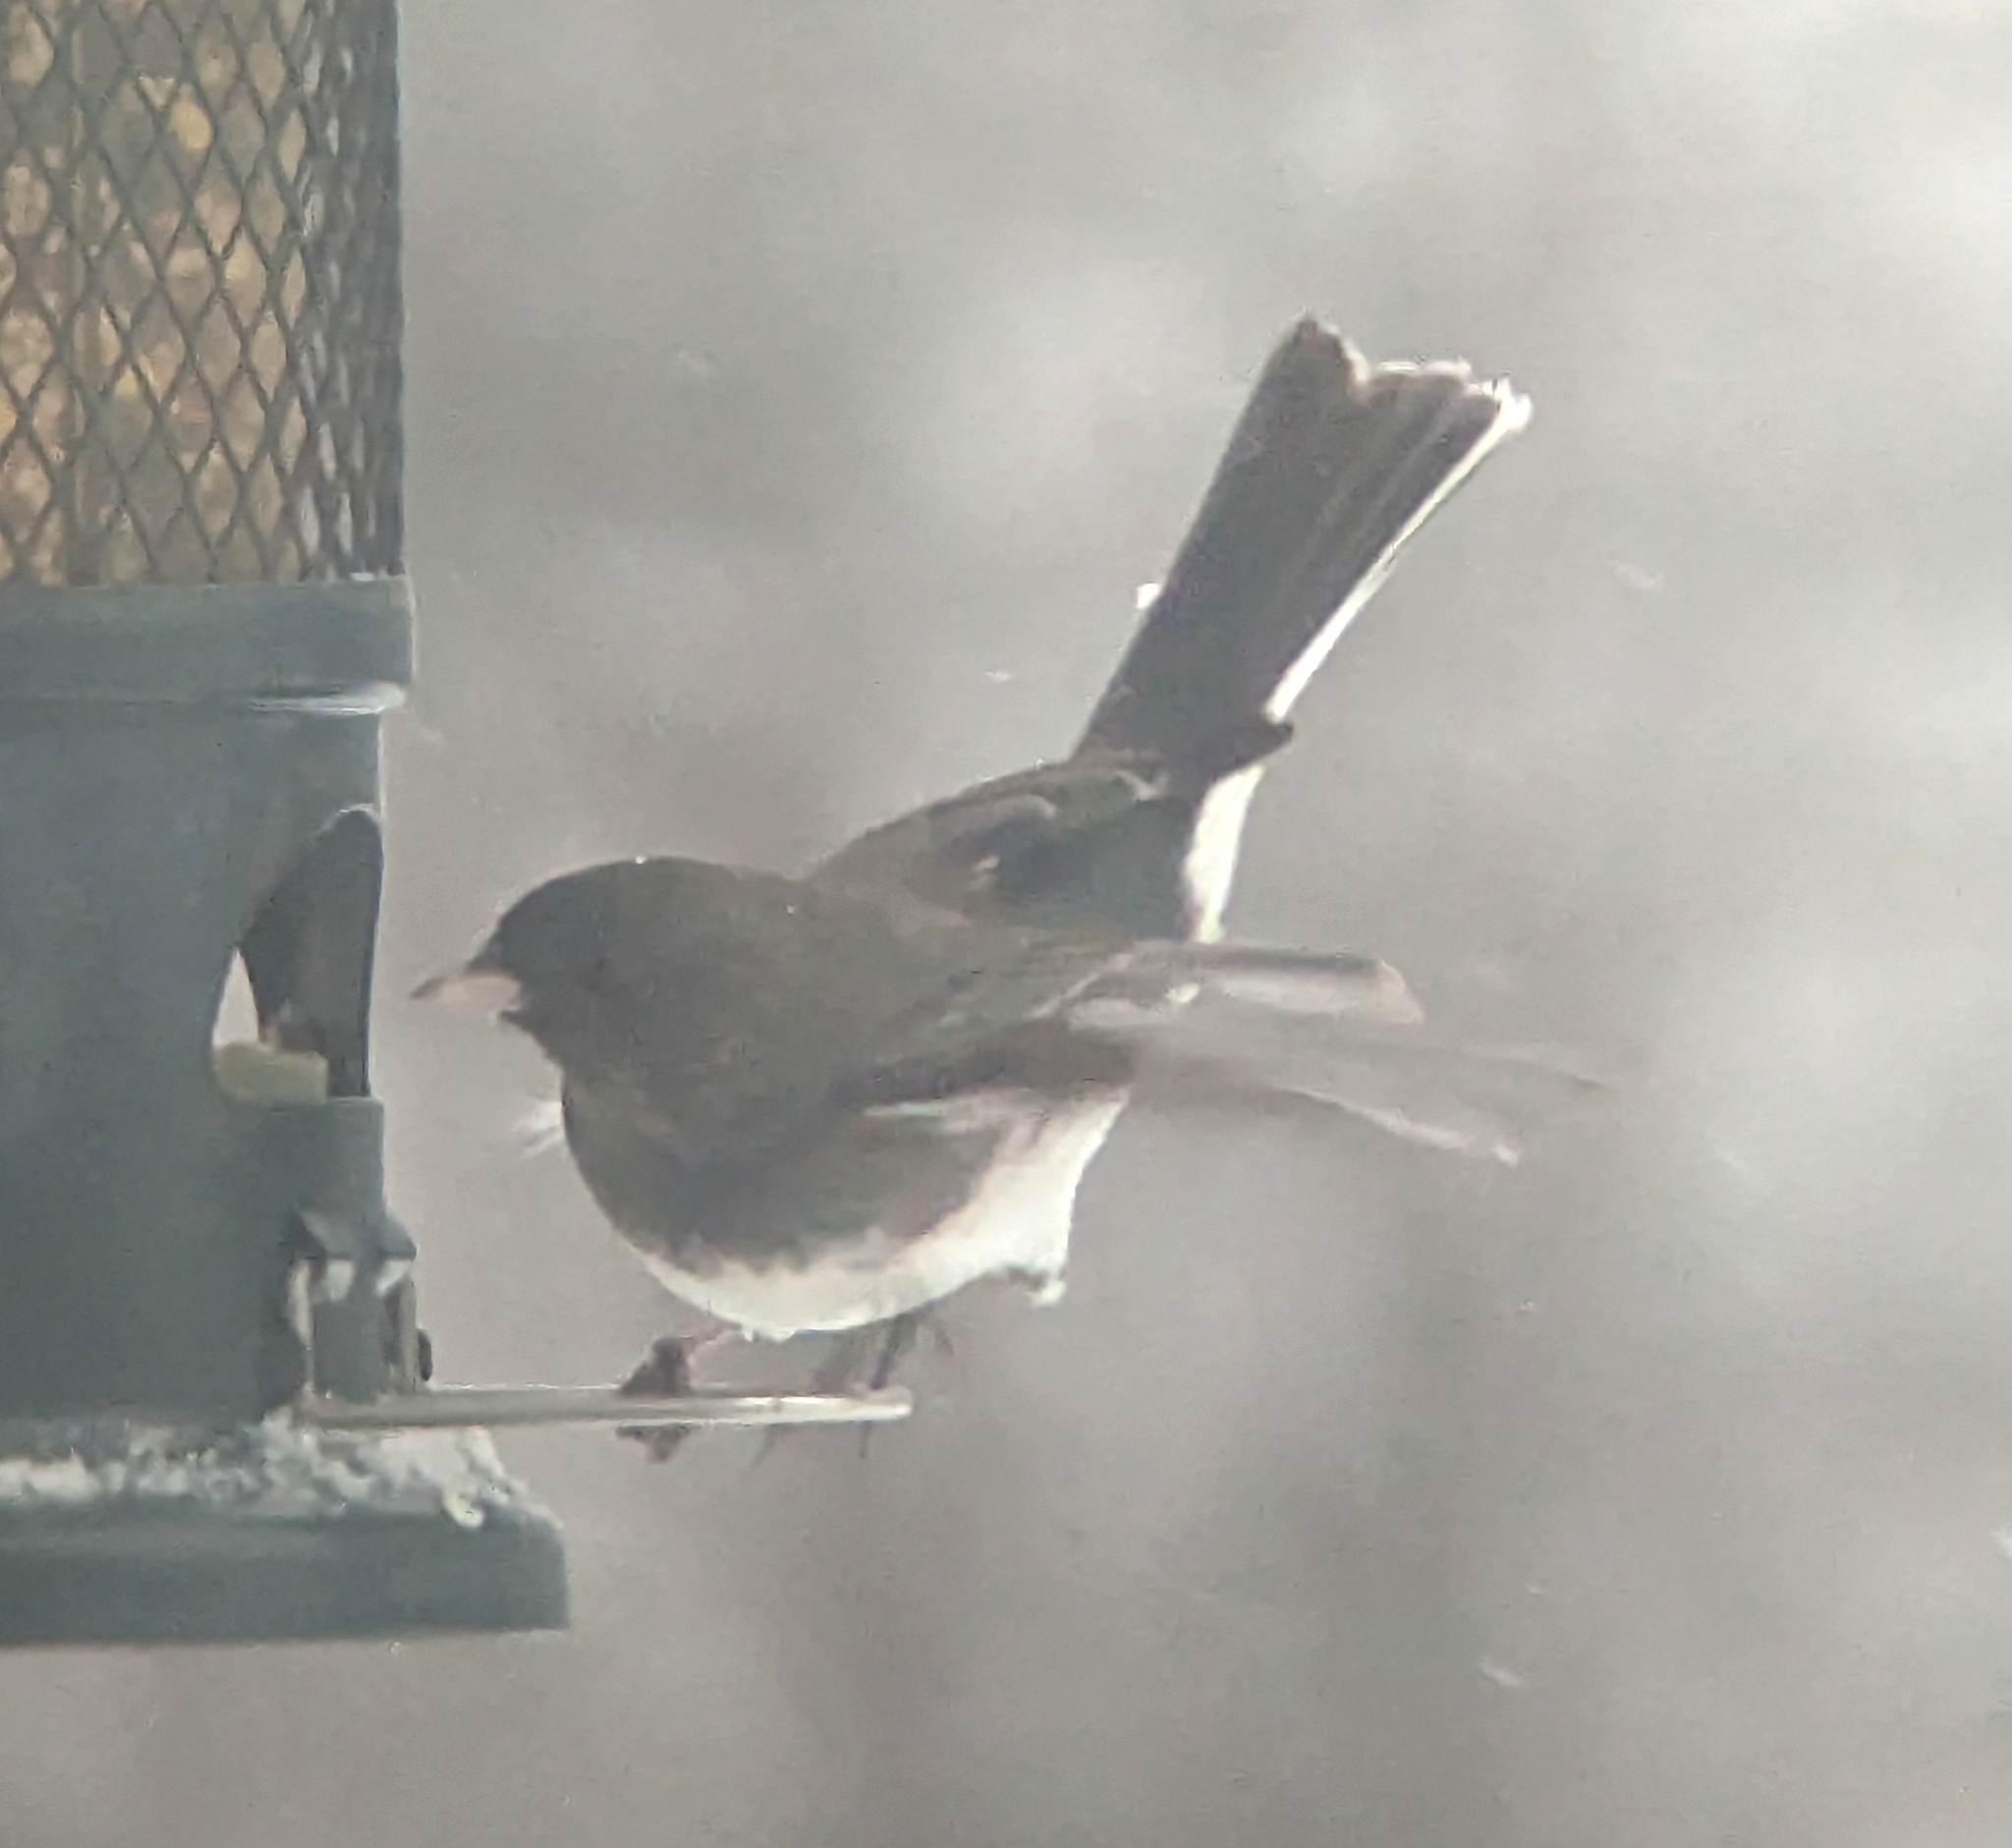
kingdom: Animalia
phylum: Chordata
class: Aves
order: Passeriformes
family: Passerellidae
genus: Junco
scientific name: Junco hyemalis
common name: Dark-eyed junco
